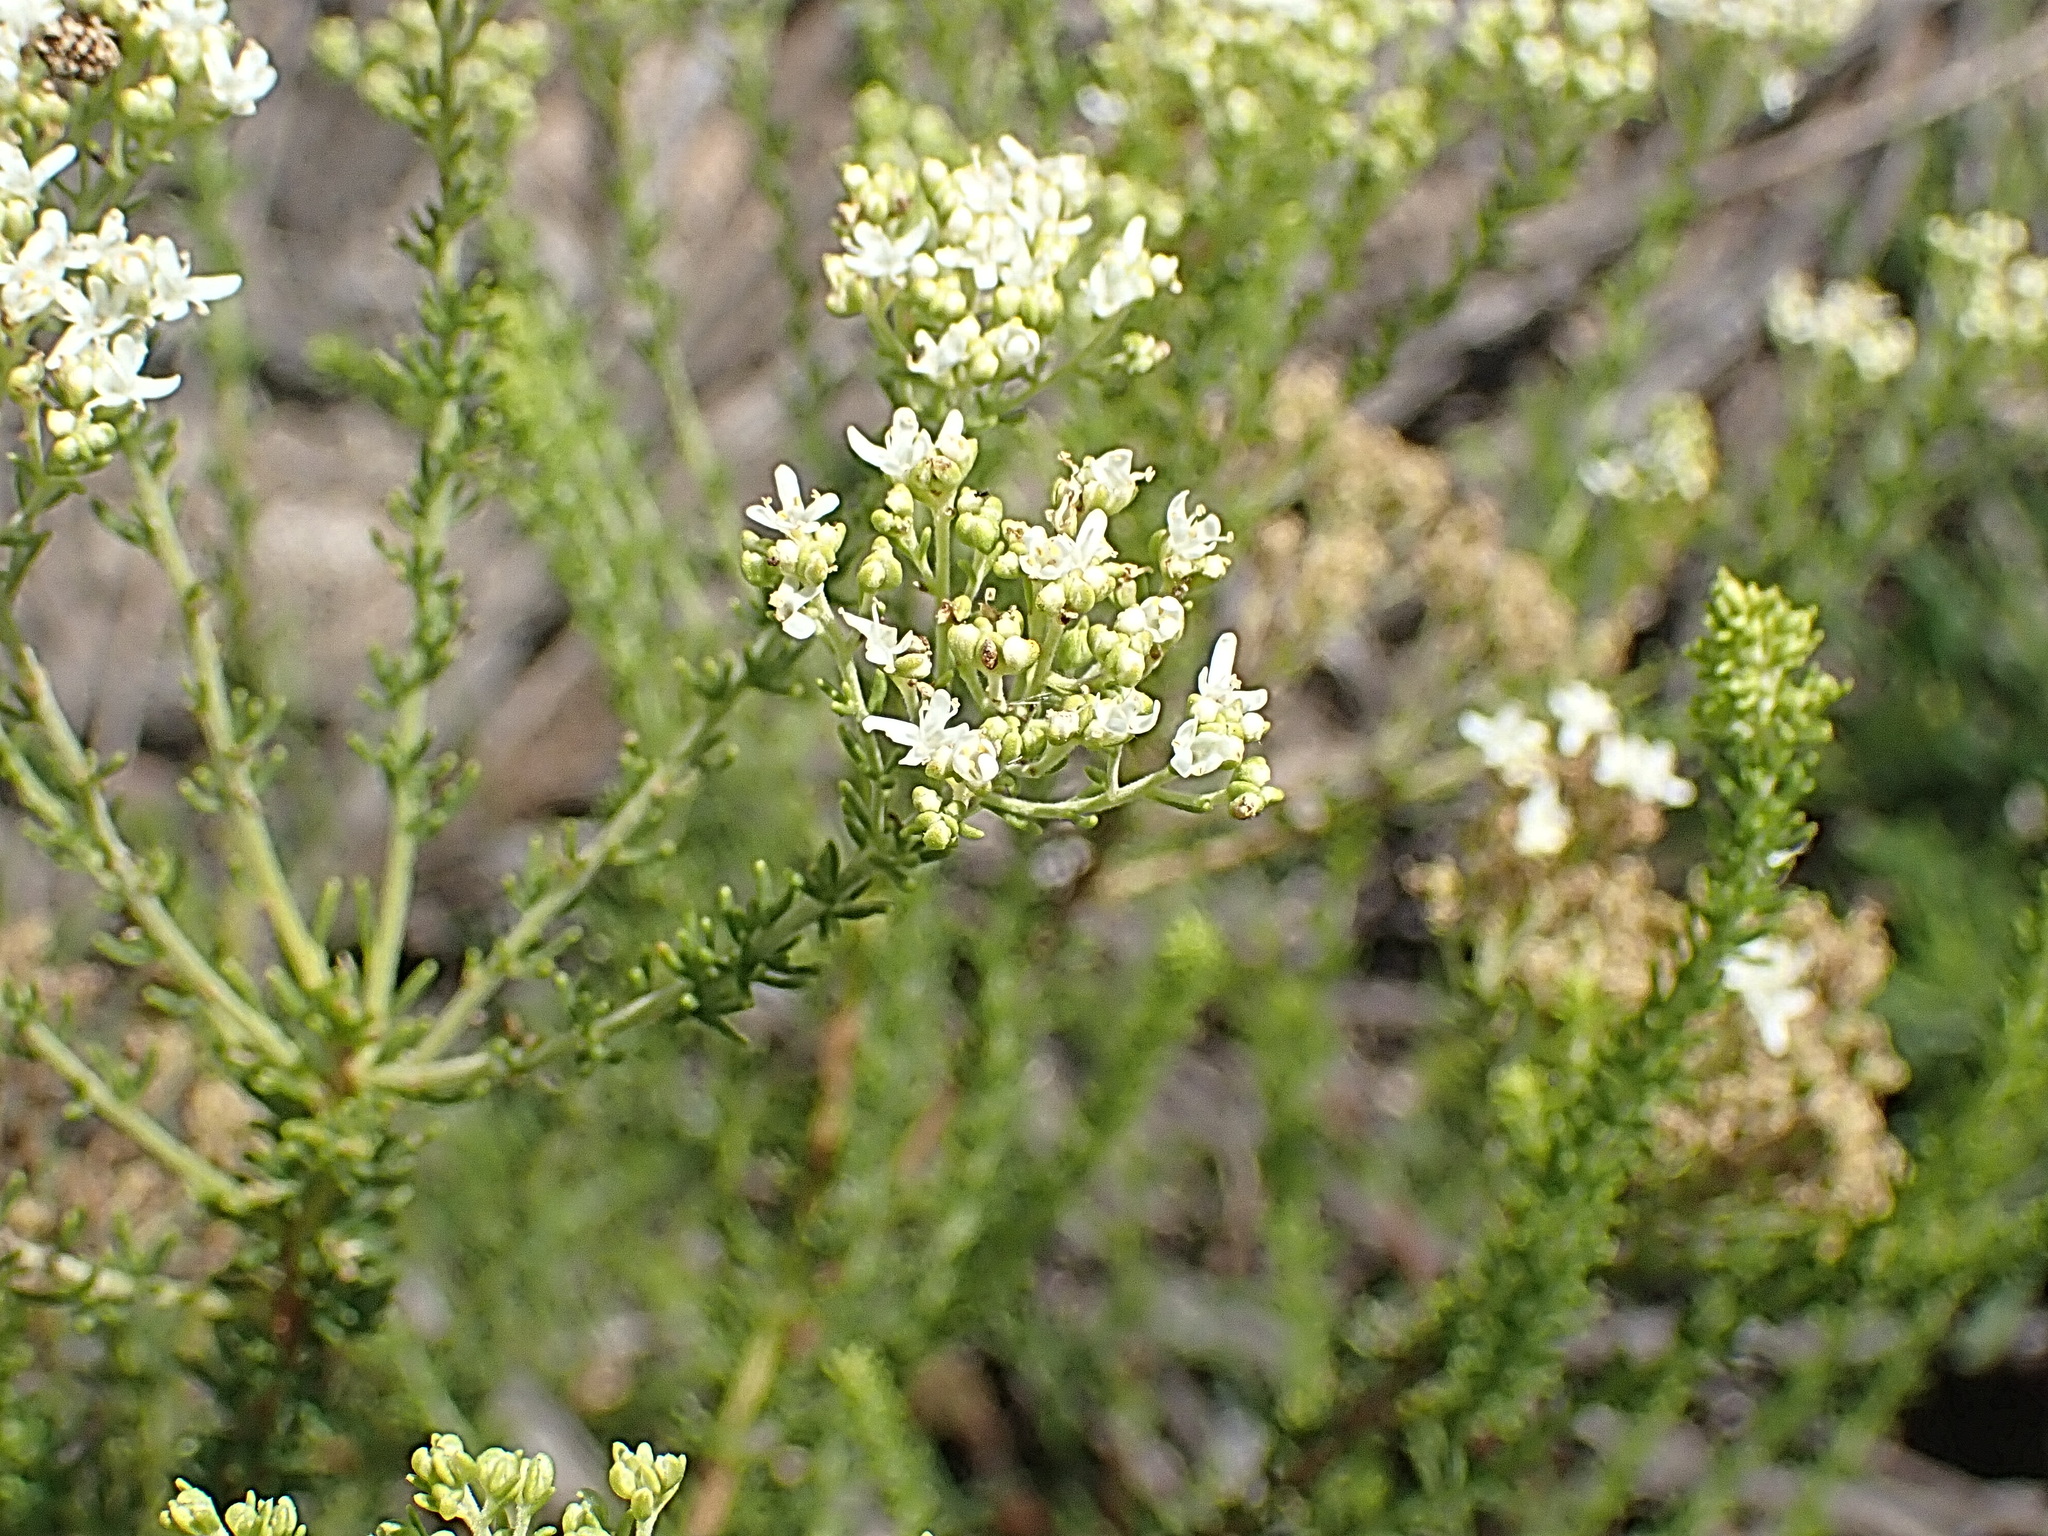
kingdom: Plantae
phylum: Tracheophyta
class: Magnoliopsida
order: Lamiales
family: Scrophulariaceae
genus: Selago
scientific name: Selago corymbosa
